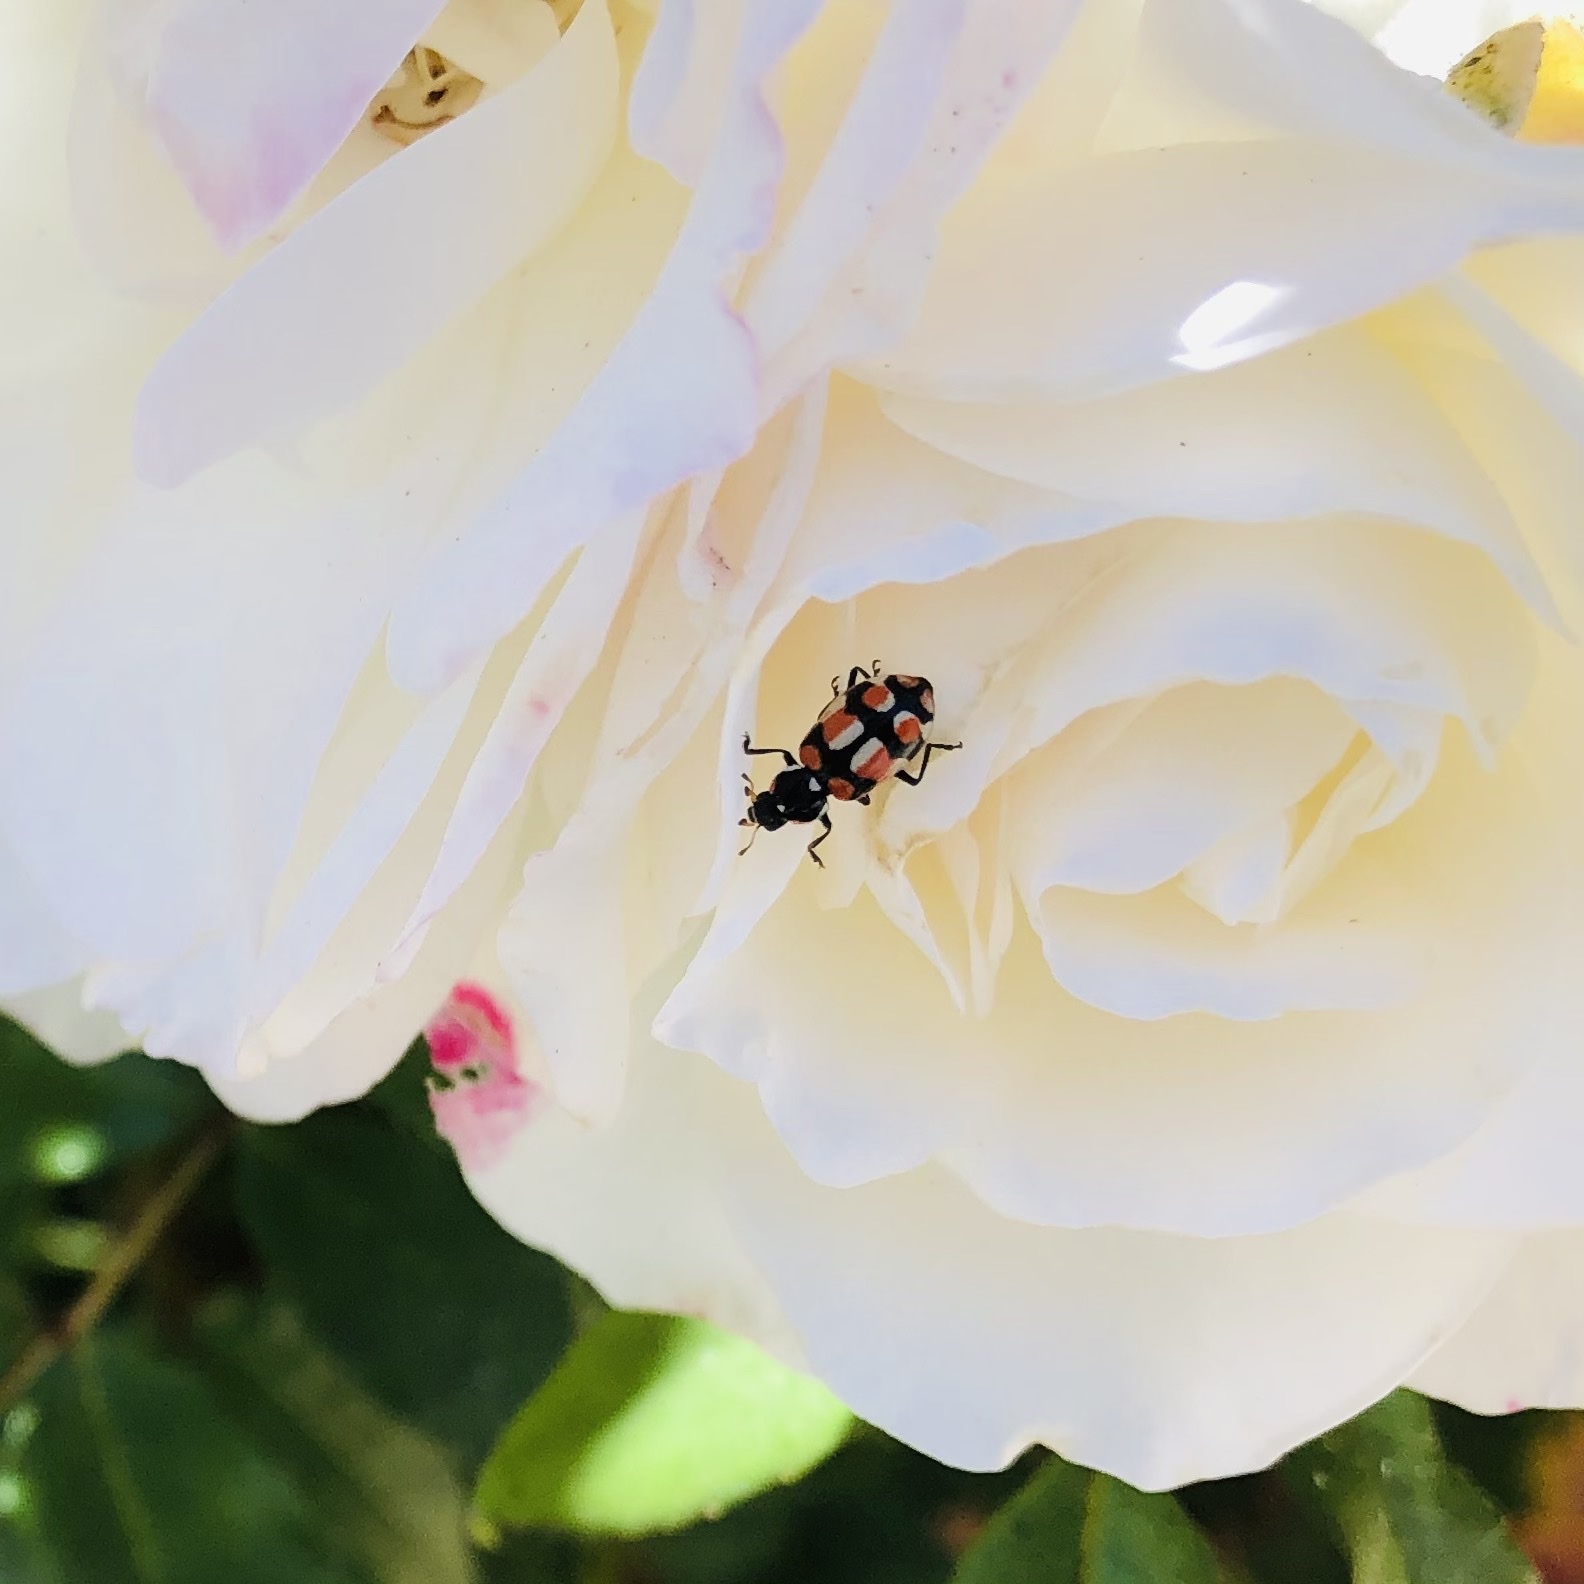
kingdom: Animalia
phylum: Arthropoda
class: Insecta
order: Coleoptera
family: Coccinellidae
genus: Eriopis
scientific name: Eriopis chilensis
